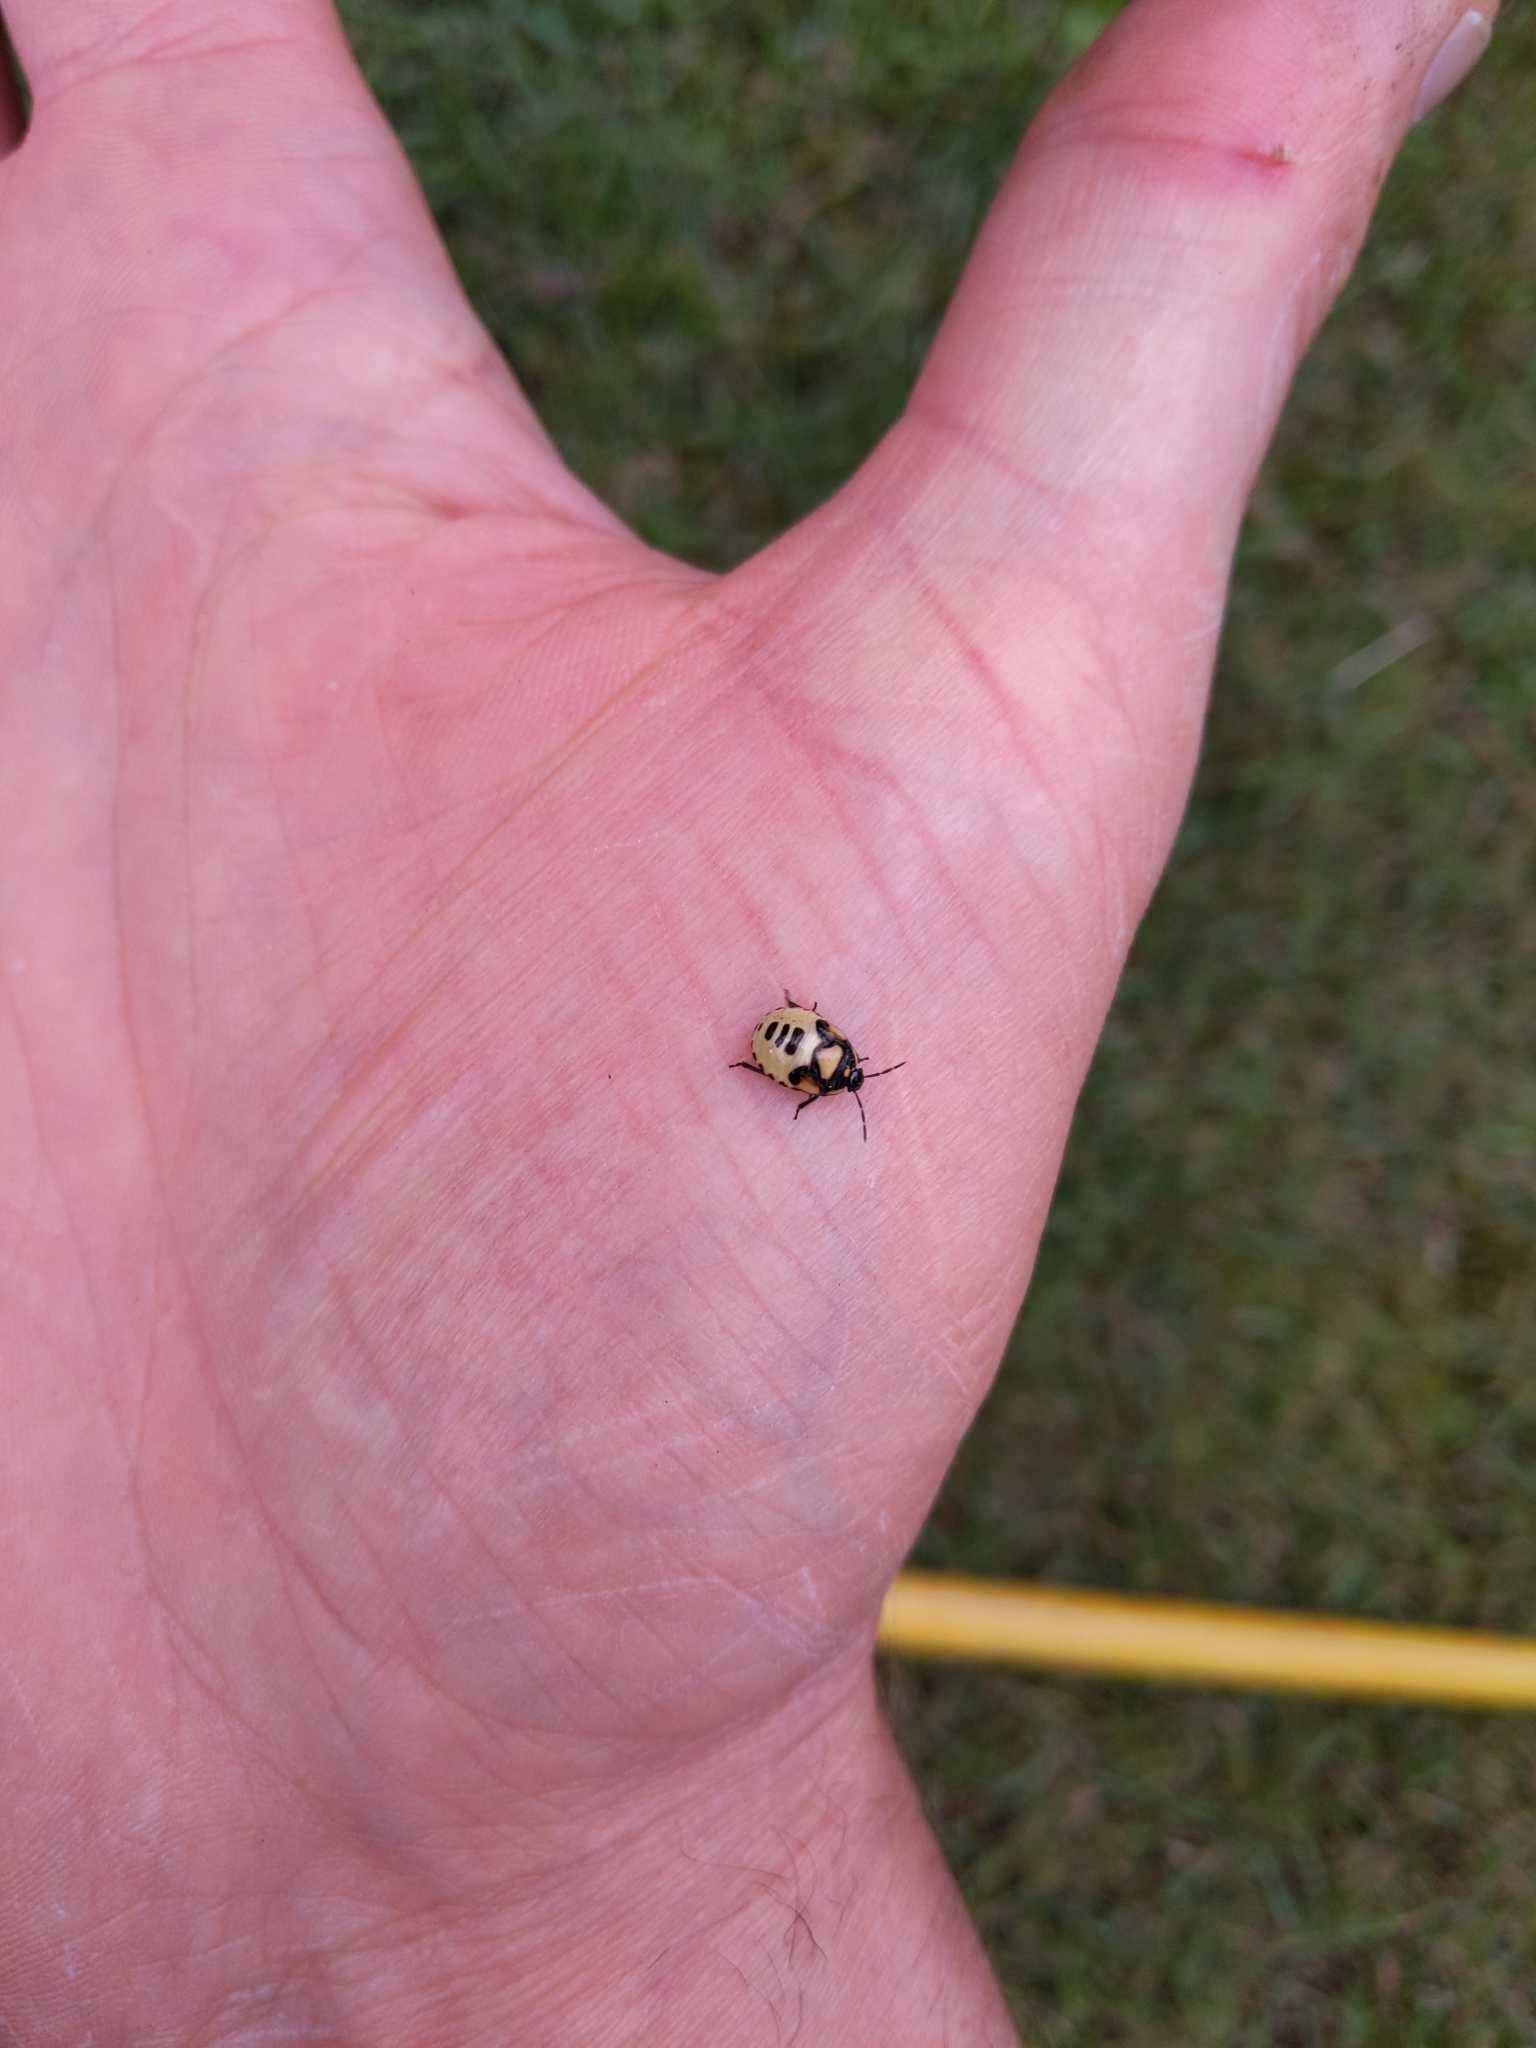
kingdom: Animalia
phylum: Arthropoda
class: Insecta
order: Hemiptera
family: Cydnidae
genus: Tritomegas
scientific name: Tritomegas bicolor
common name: Pied shieldbug
